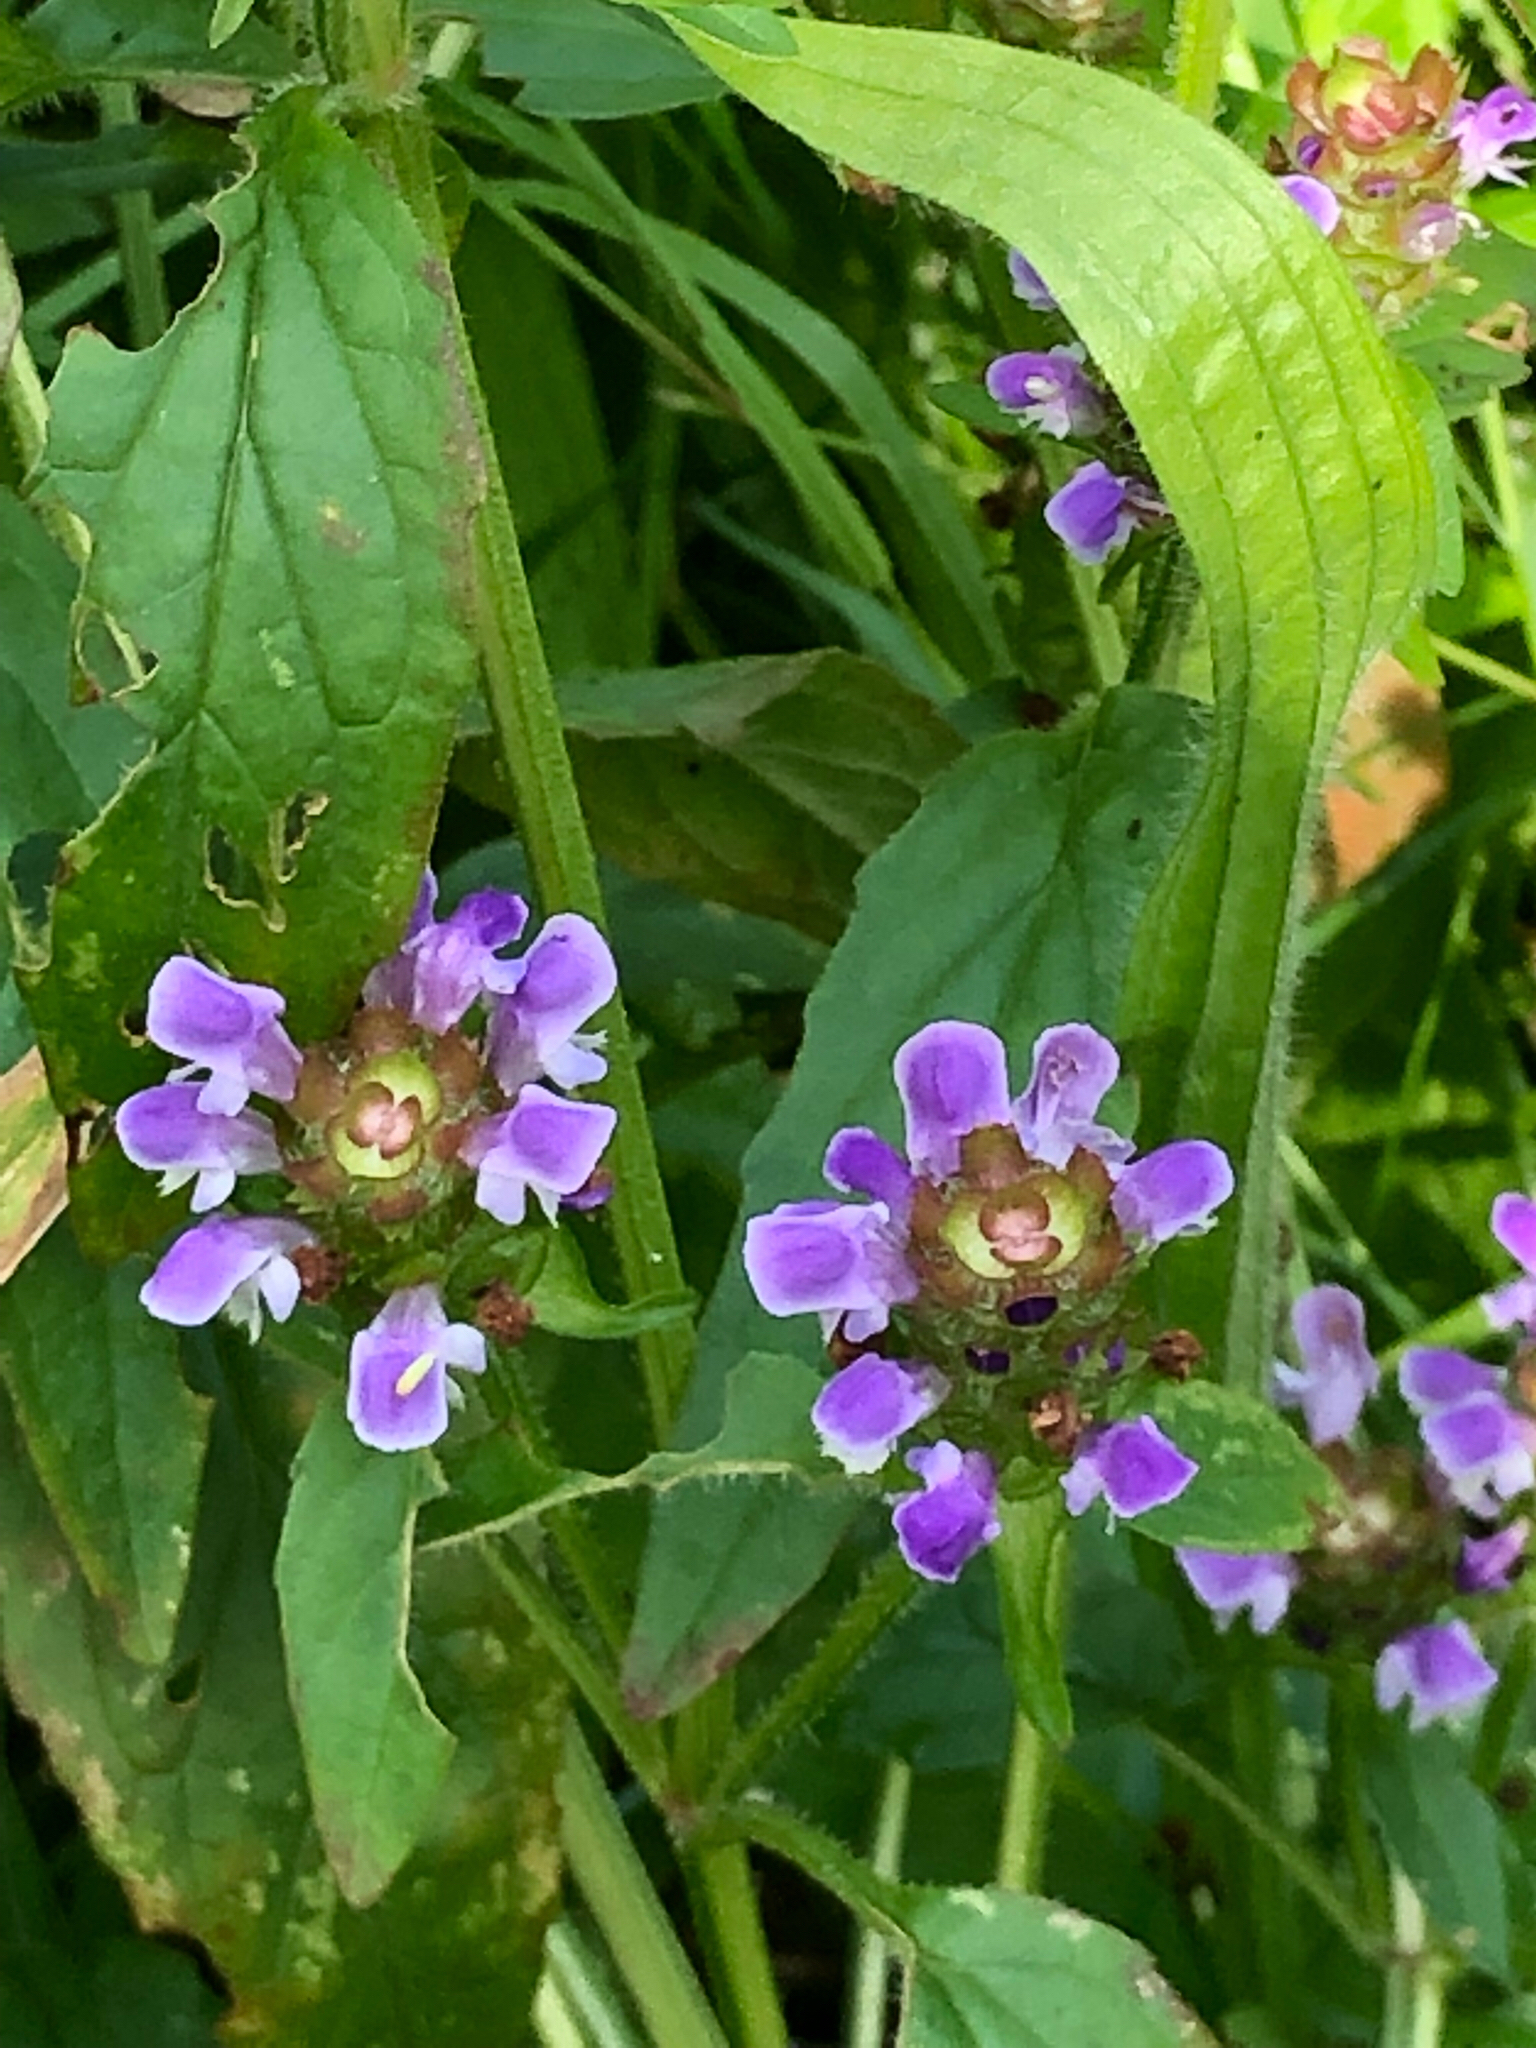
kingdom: Plantae
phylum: Tracheophyta
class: Magnoliopsida
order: Lamiales
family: Lamiaceae
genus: Prunella
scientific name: Prunella vulgaris
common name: Heal-all
